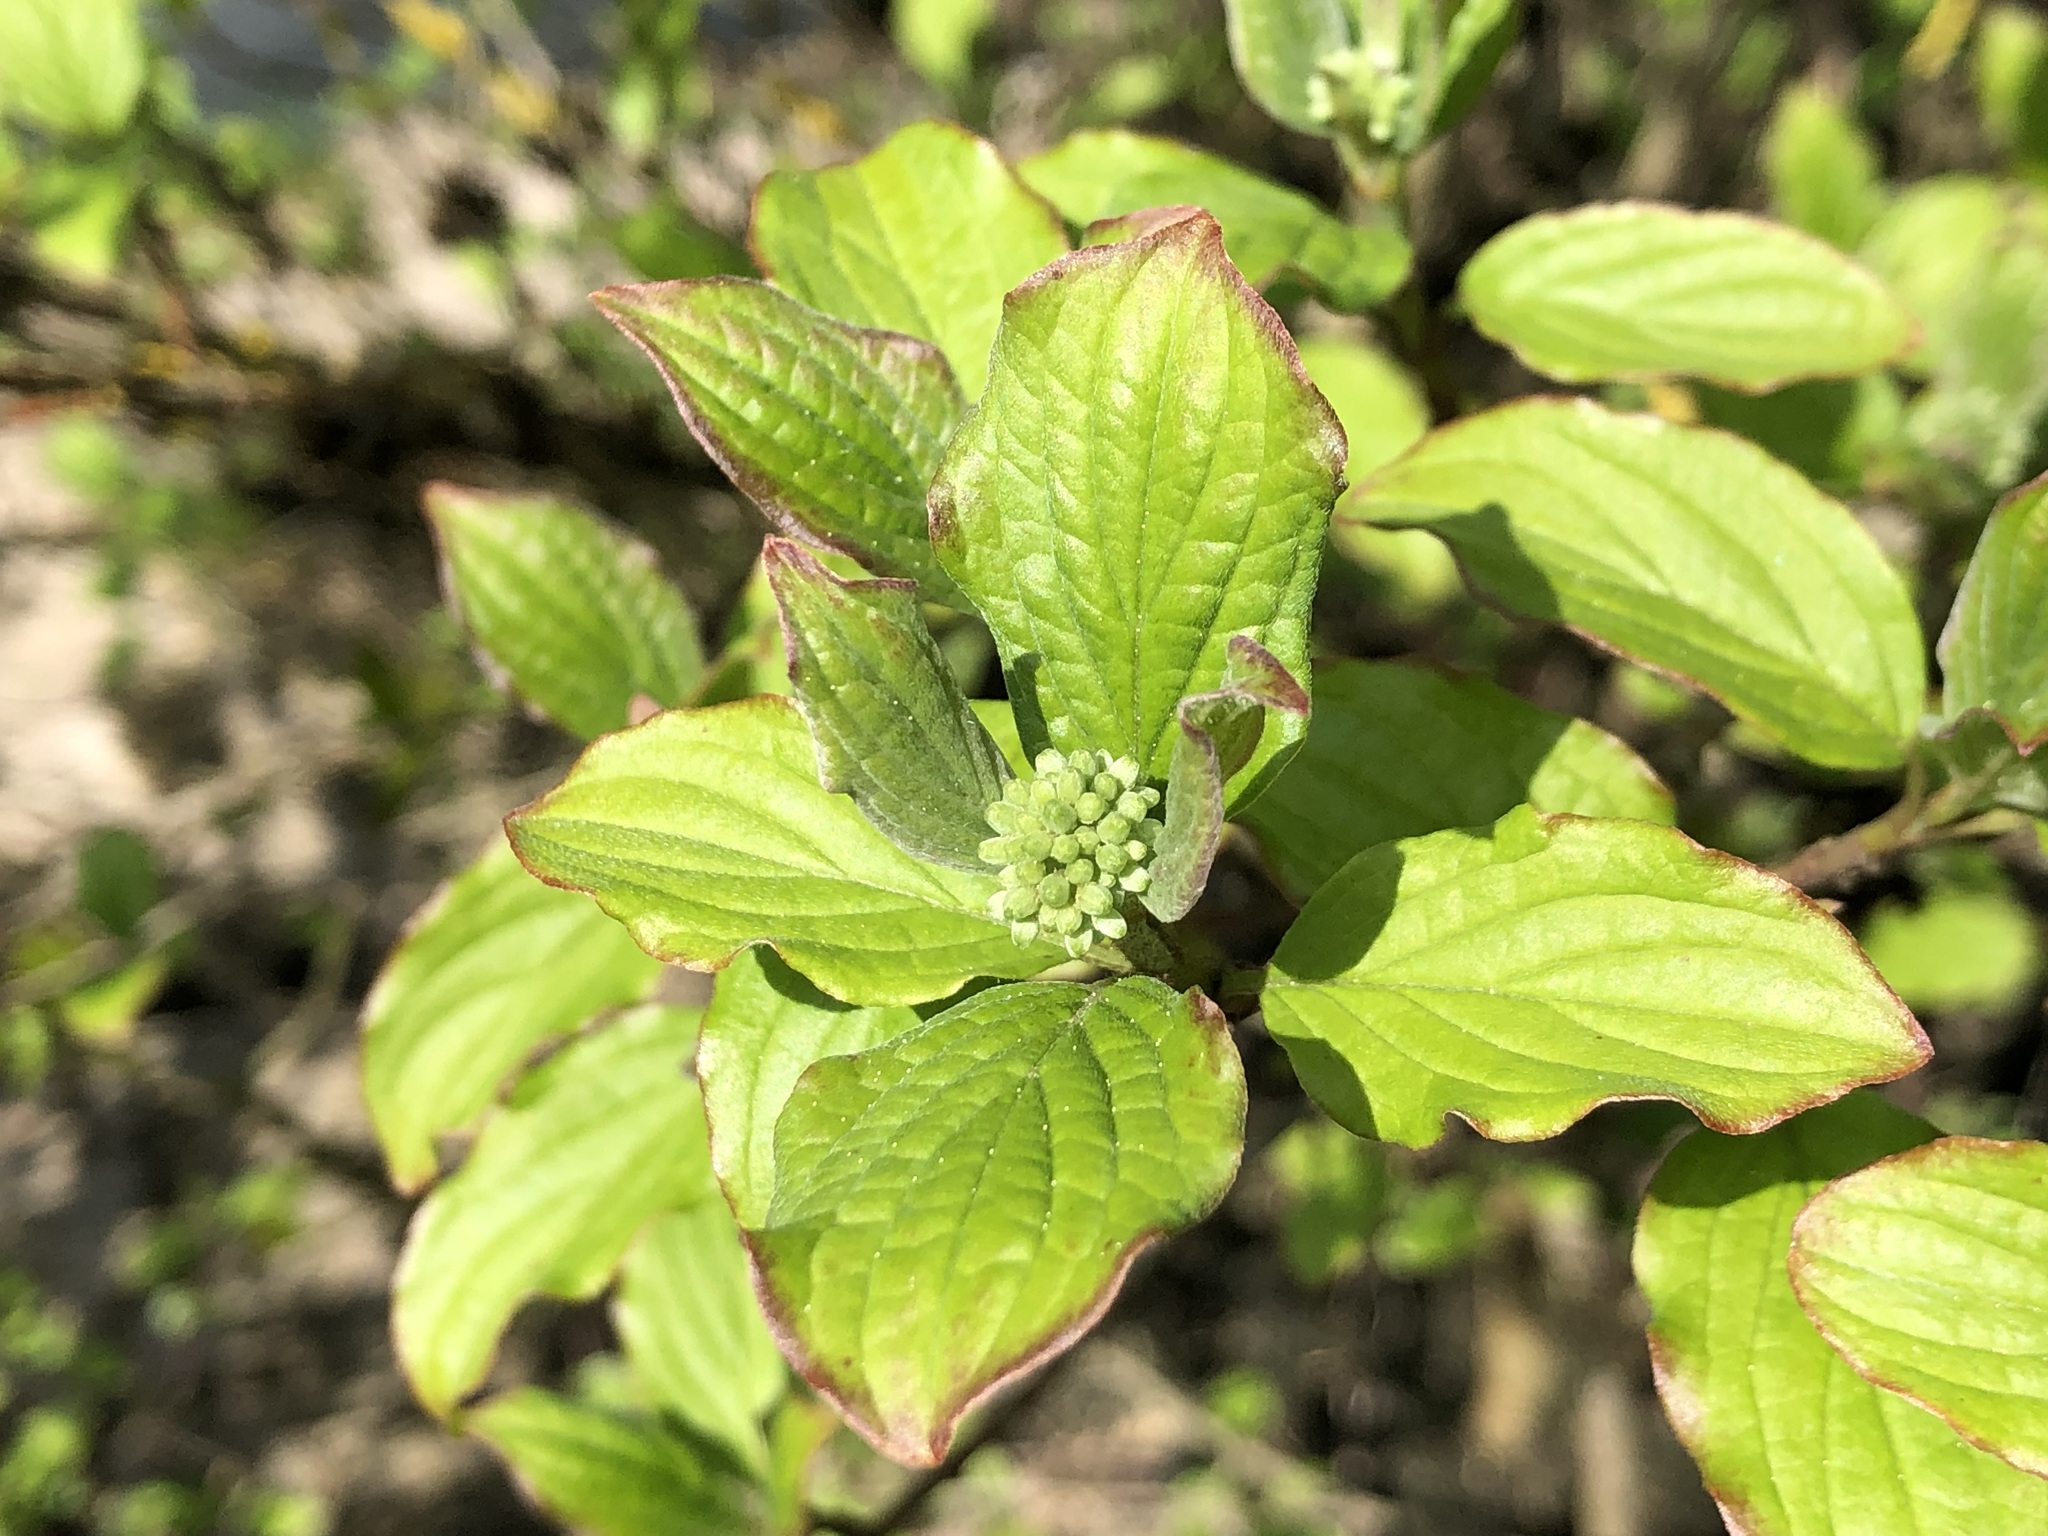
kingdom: Plantae
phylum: Tracheophyta
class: Magnoliopsida
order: Cornales
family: Cornaceae
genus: Cornus
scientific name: Cornus sanguinea
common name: Dogwood
